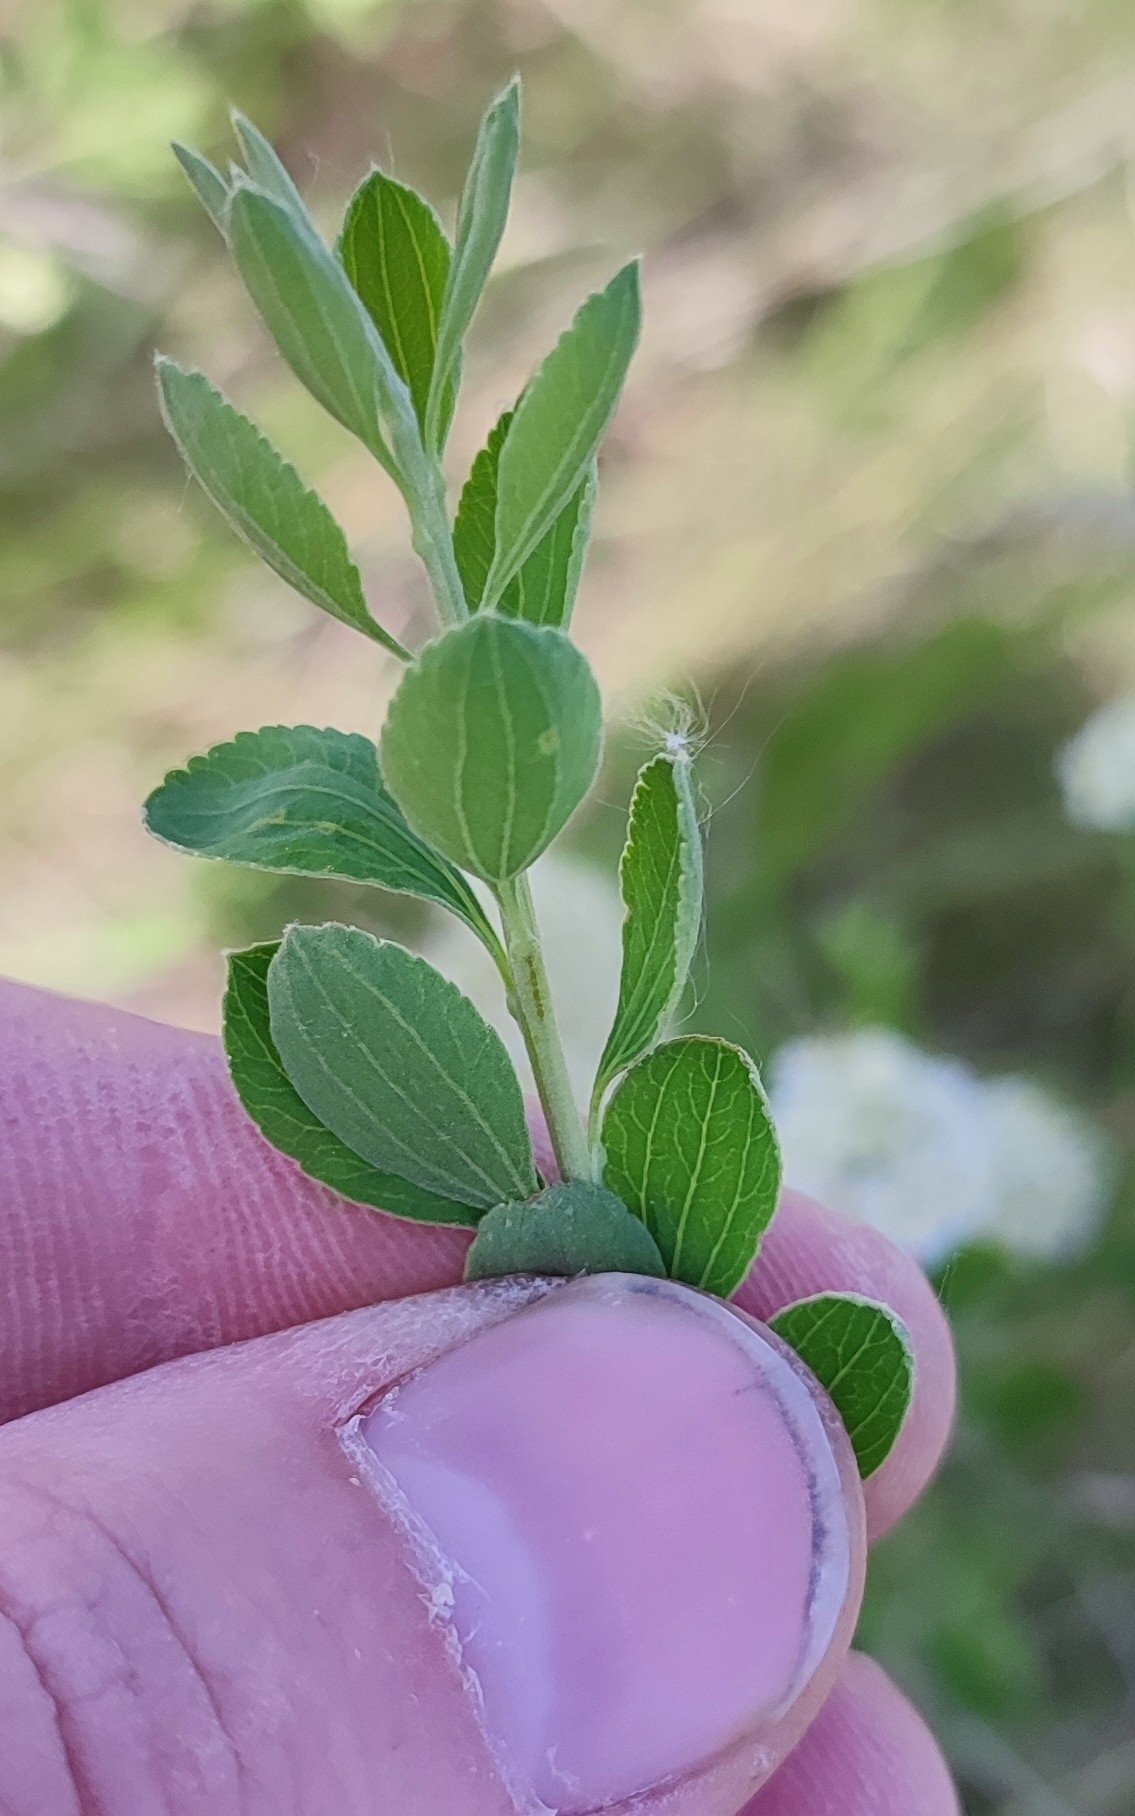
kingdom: Plantae
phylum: Tracheophyta
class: Magnoliopsida
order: Rosales
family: Rosaceae
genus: Spiraea
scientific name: Spiraea crenata
